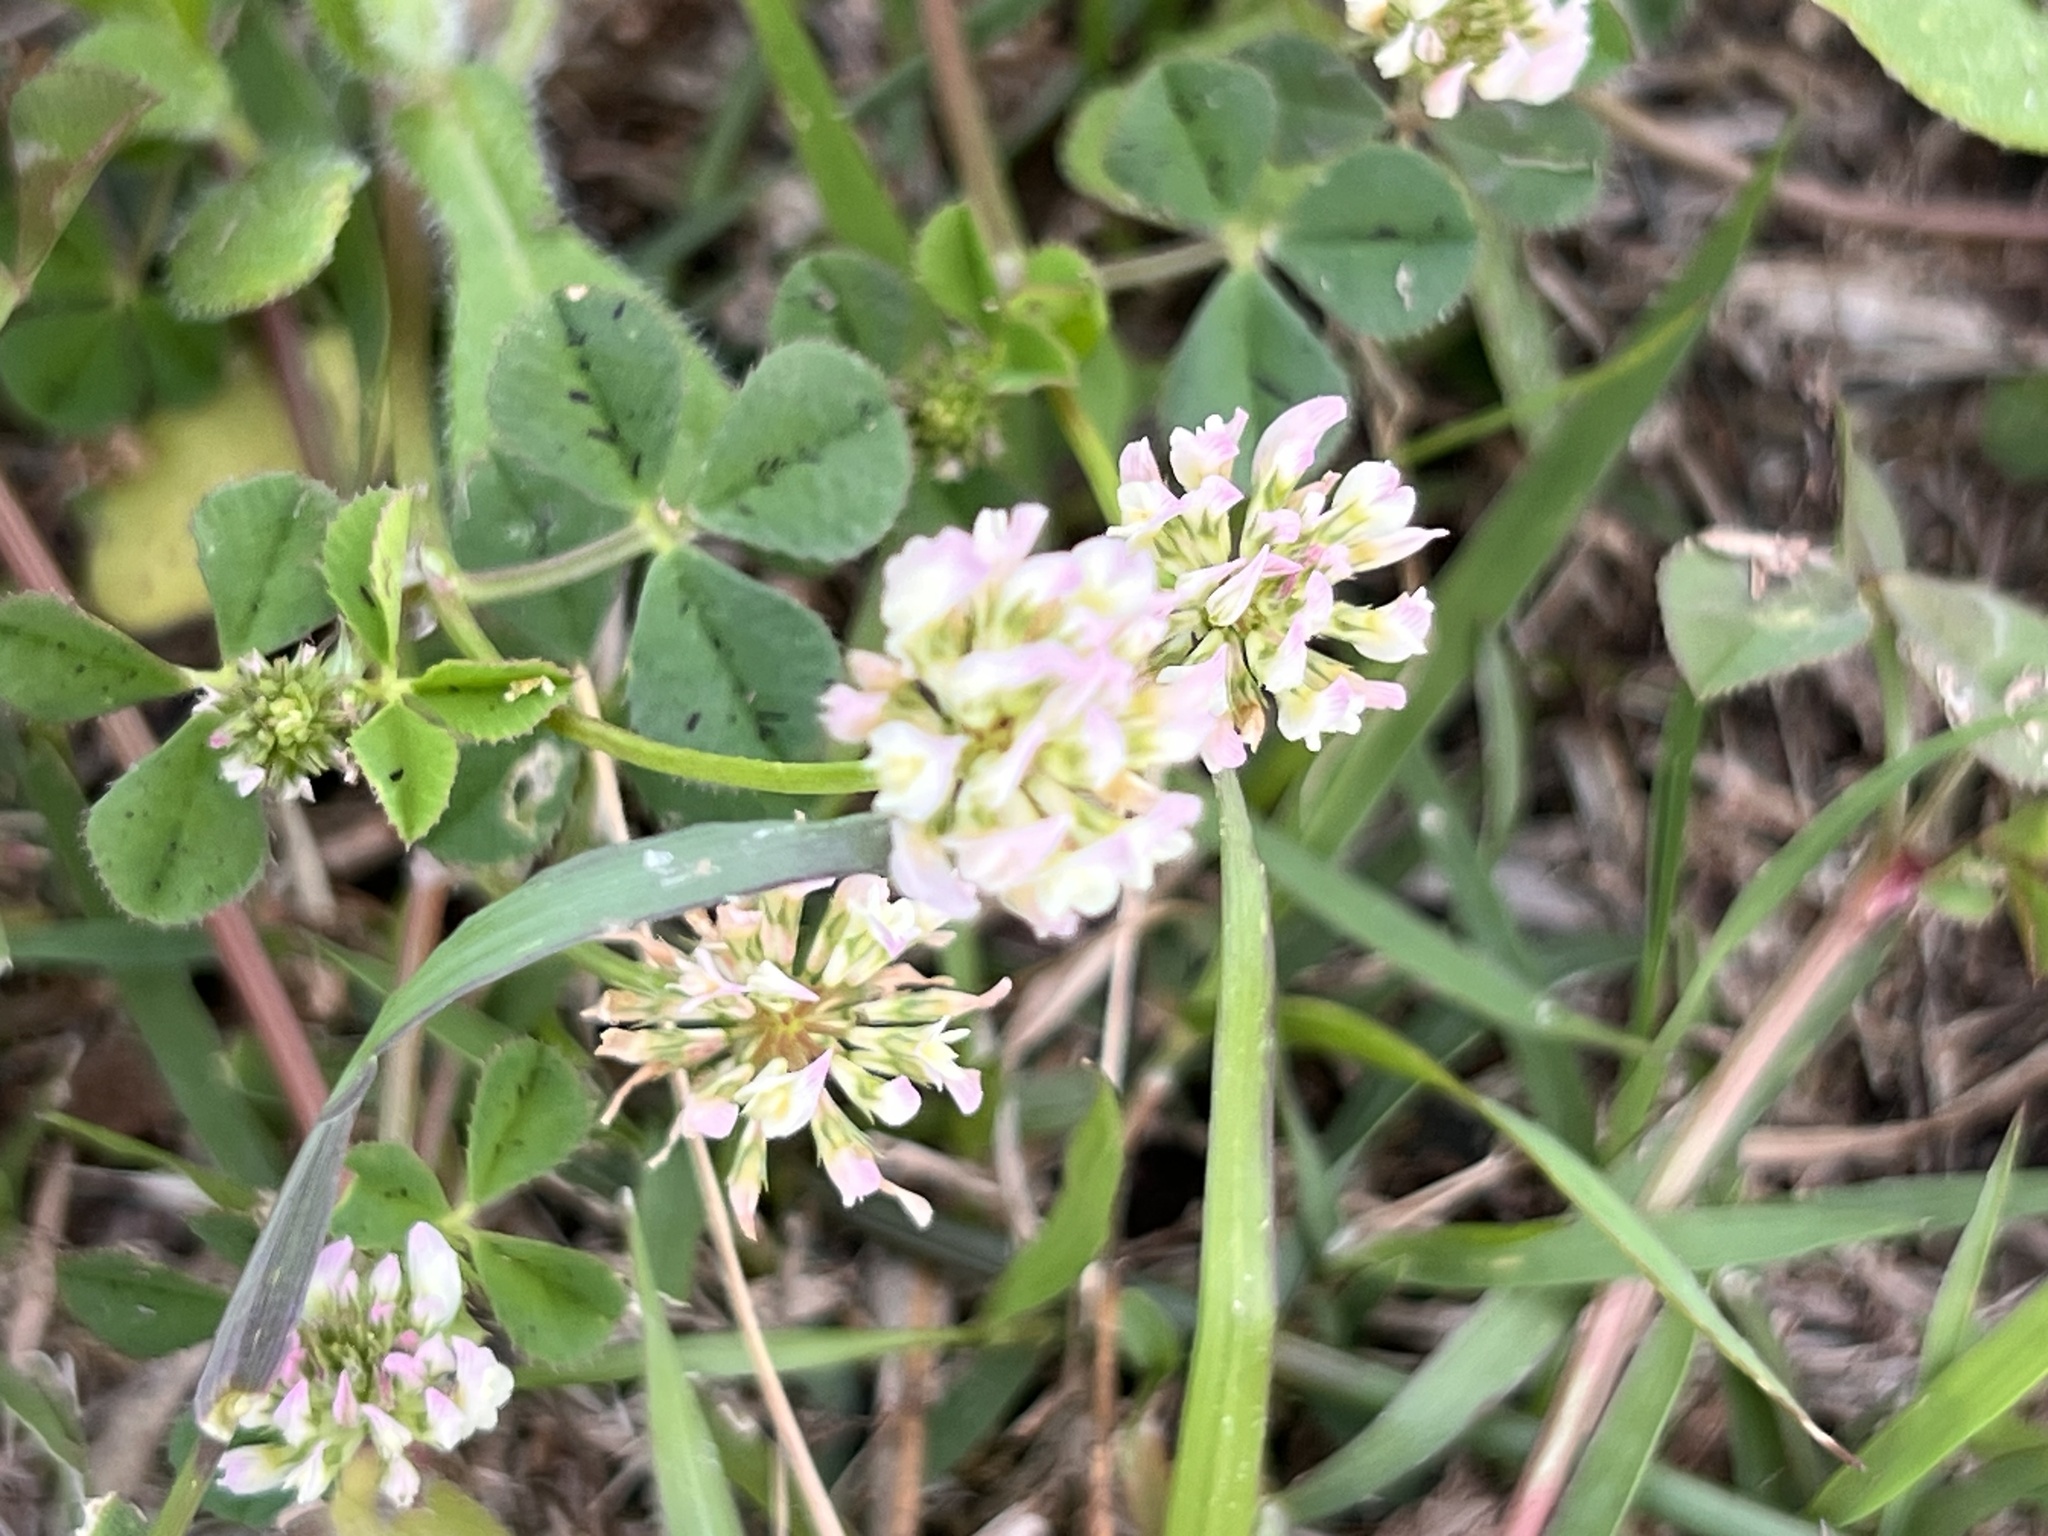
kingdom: Plantae
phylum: Tracheophyta
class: Magnoliopsida
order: Fabales
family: Fabaceae
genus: Trifolium
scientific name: Trifolium nigrescens
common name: Small white clover
